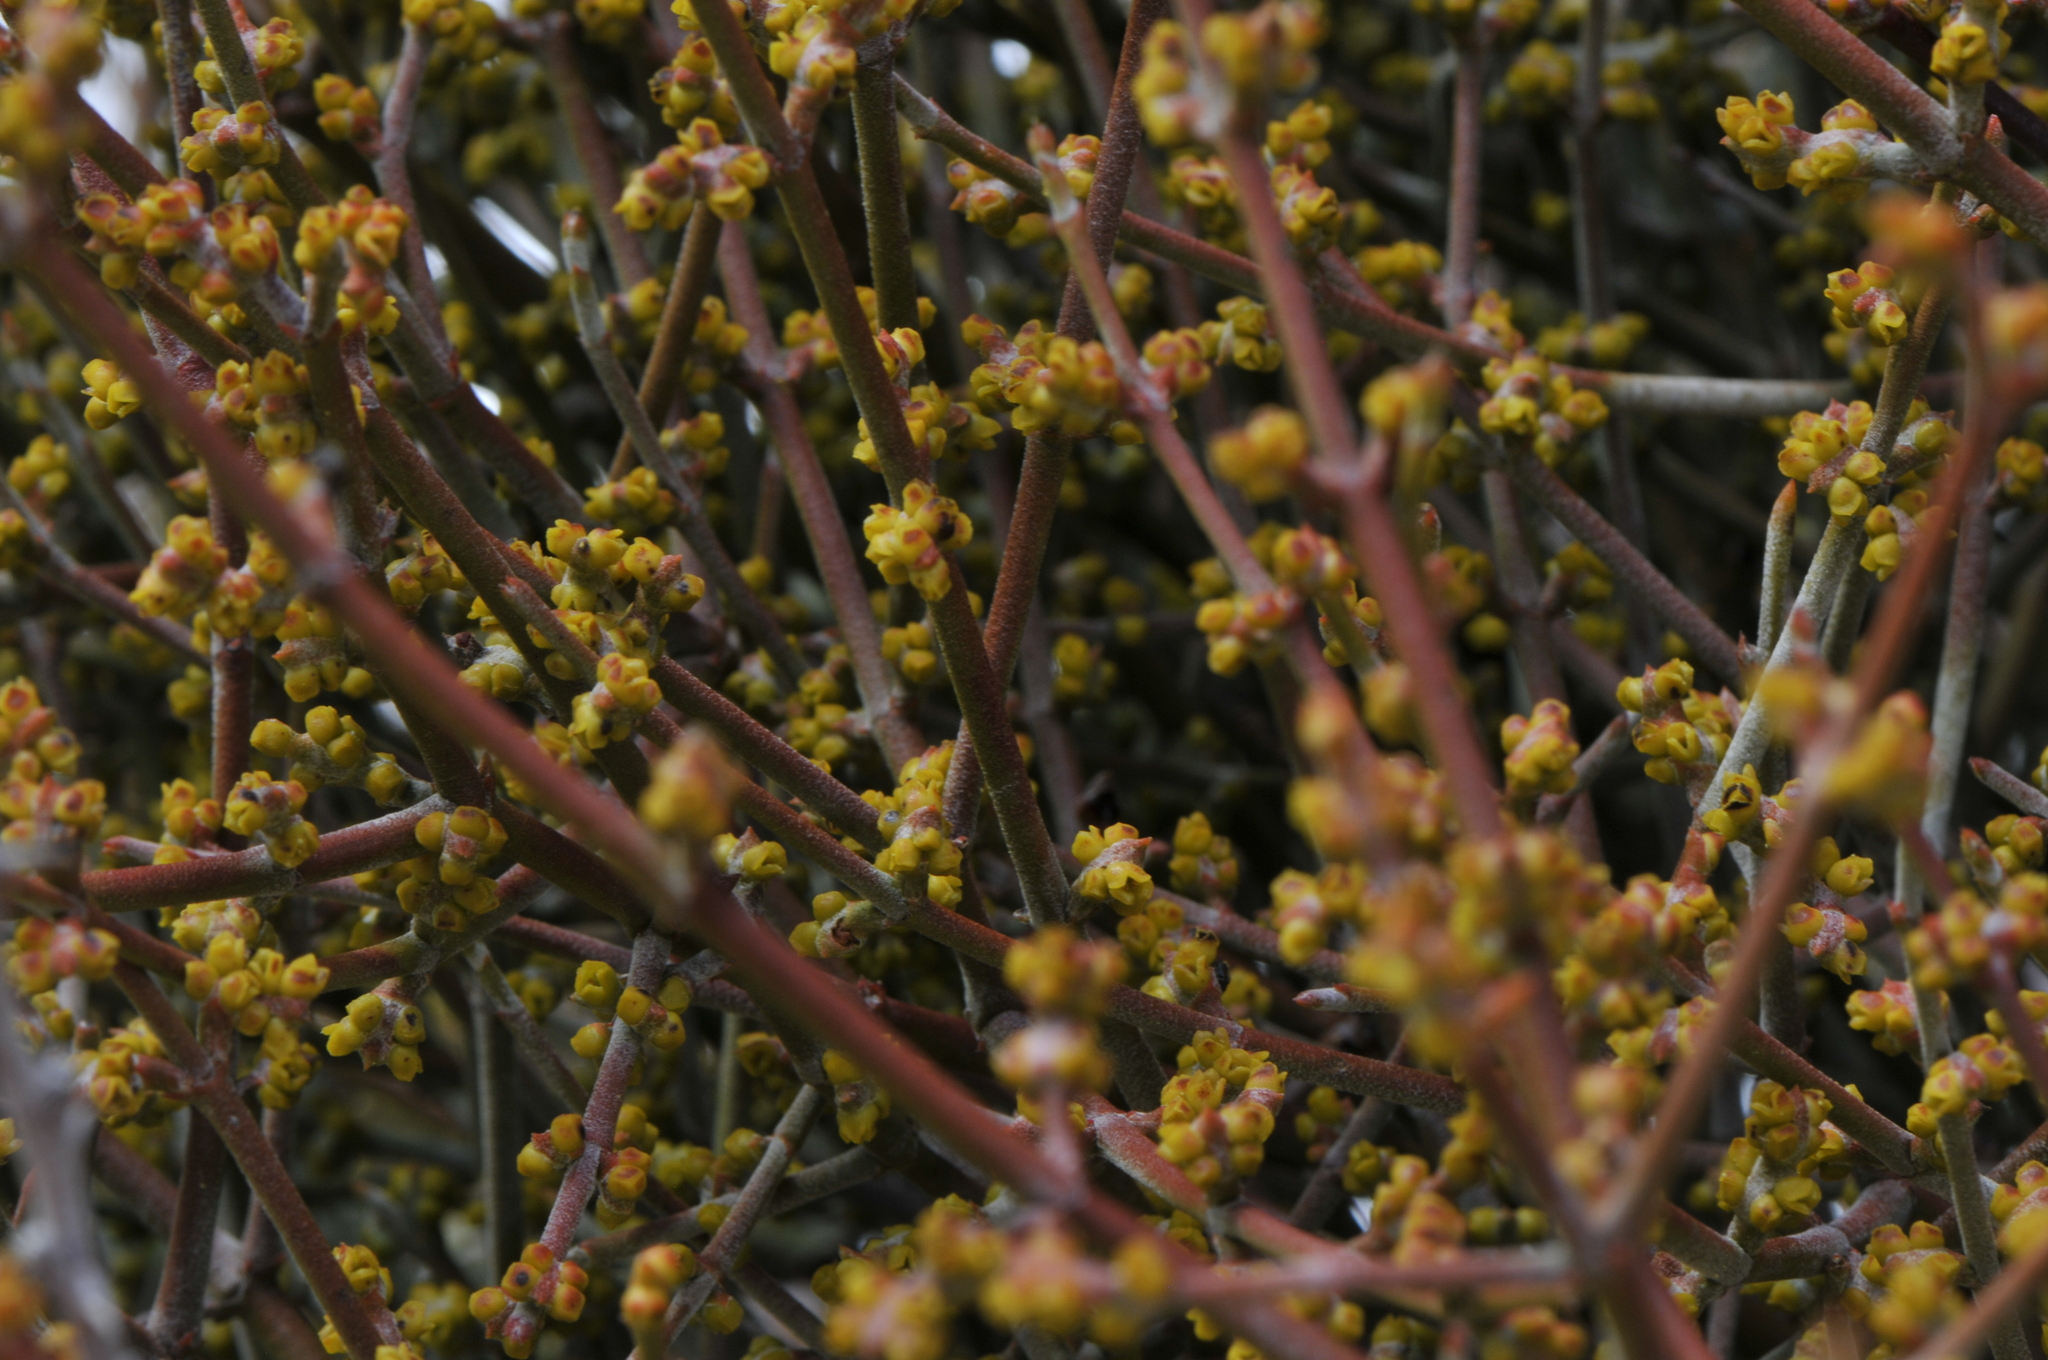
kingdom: Plantae
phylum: Tracheophyta
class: Magnoliopsida
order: Santalales
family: Viscaceae
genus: Phoradendron
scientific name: Phoradendron californicum
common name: Acacia mistletoe
